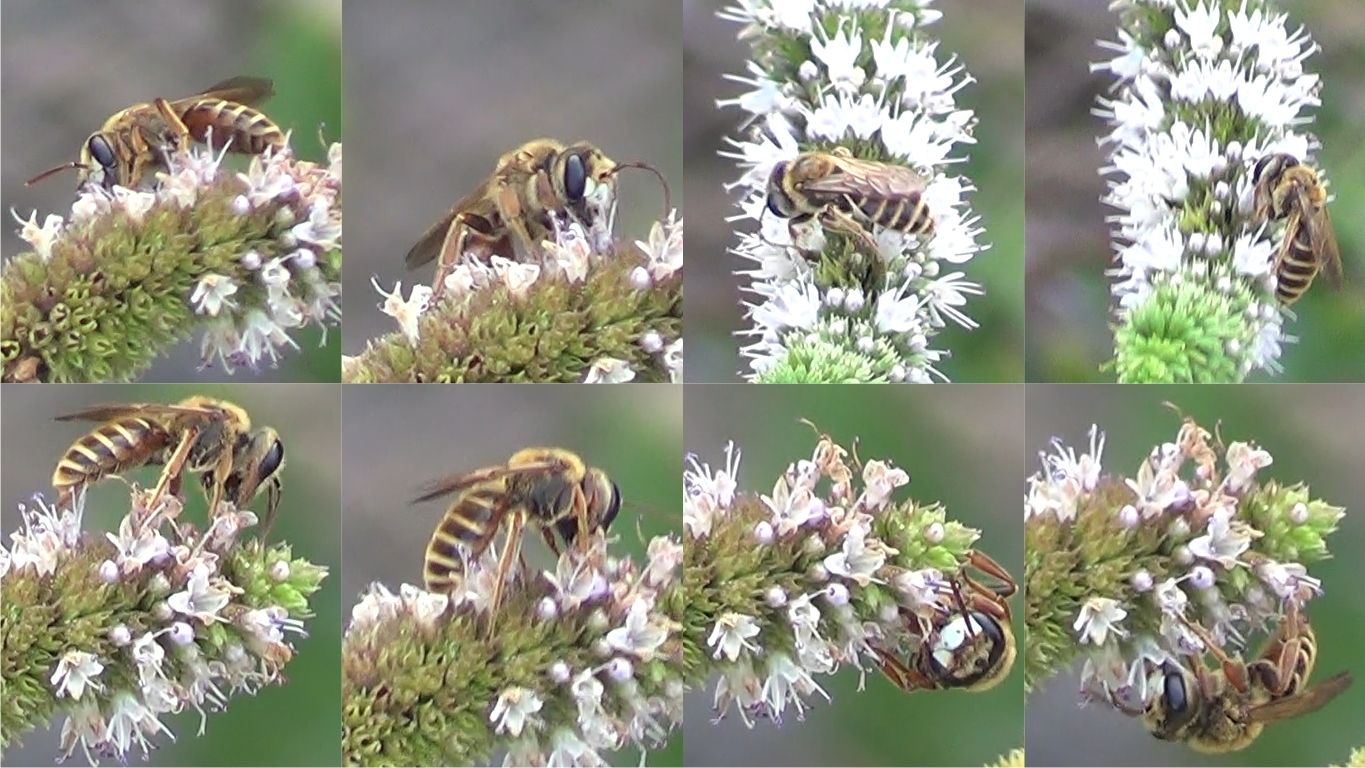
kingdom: Animalia
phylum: Arthropoda
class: Insecta
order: Hymenoptera
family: Andrenidae
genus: Andrena
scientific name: Andrena variabilis
